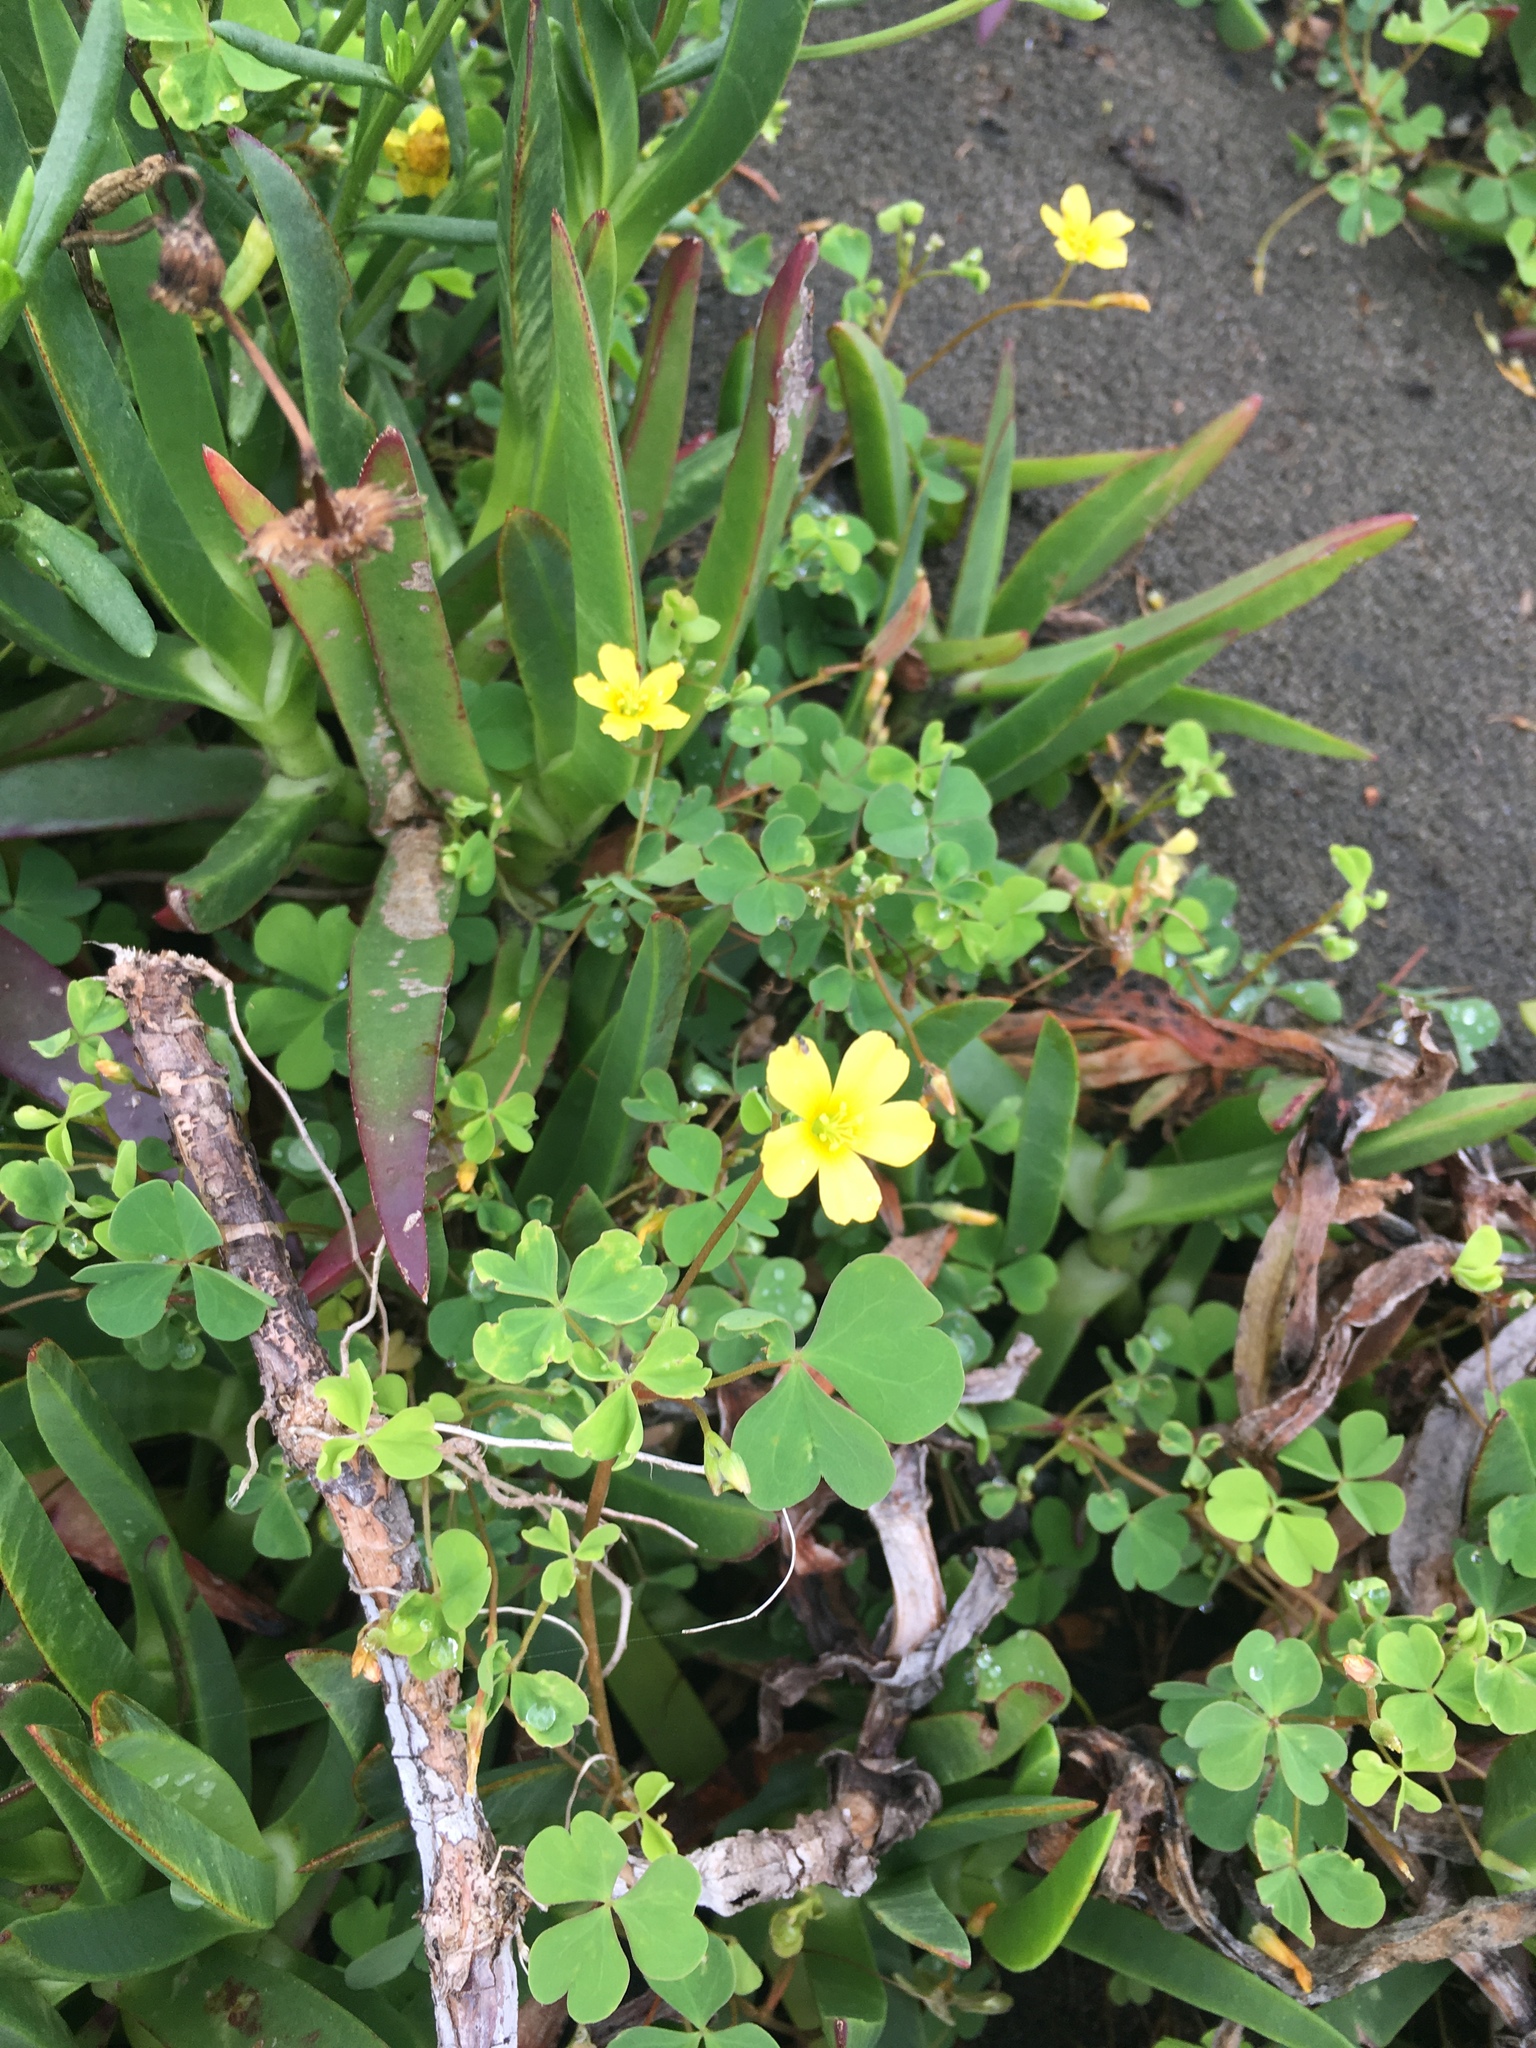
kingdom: Plantae
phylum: Tracheophyta
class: Magnoliopsida
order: Oxalidales
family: Oxalidaceae
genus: Oxalis
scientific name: Oxalis corniculata
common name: Procumbent yellow-sorrel
